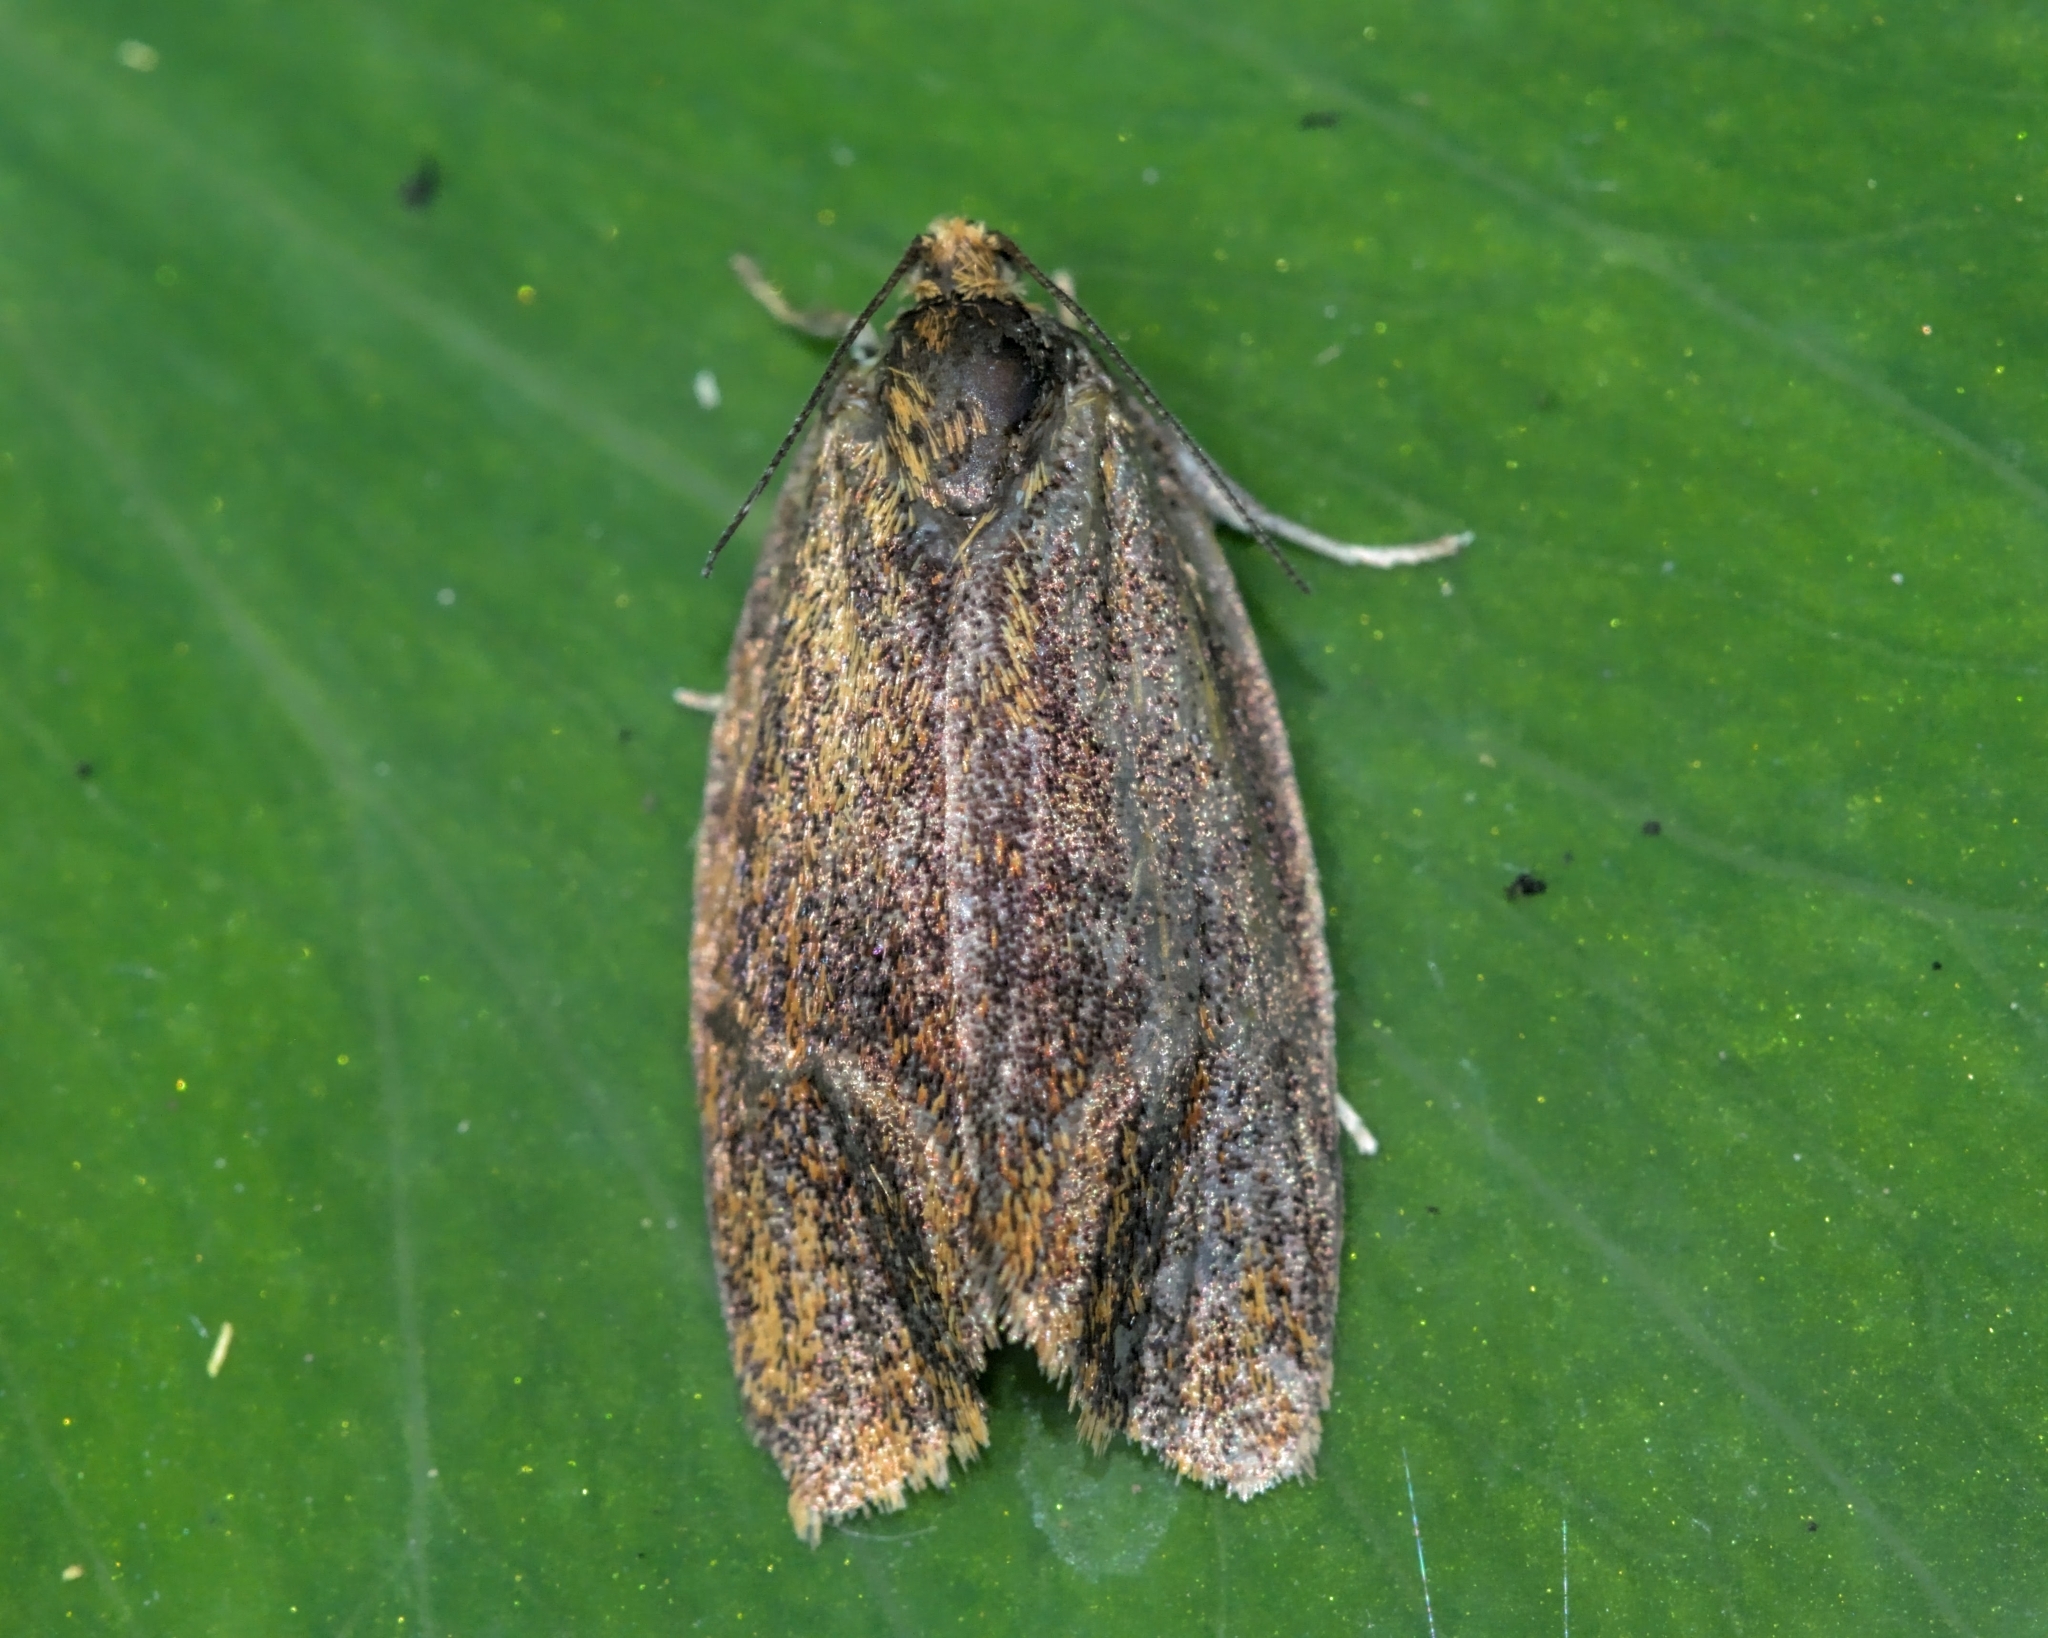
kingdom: Animalia
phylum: Arthropoda
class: Insecta
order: Lepidoptera
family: Tortricidae
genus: Ptycholoma
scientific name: Ptycholoma lecheana
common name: Leches twist moth
